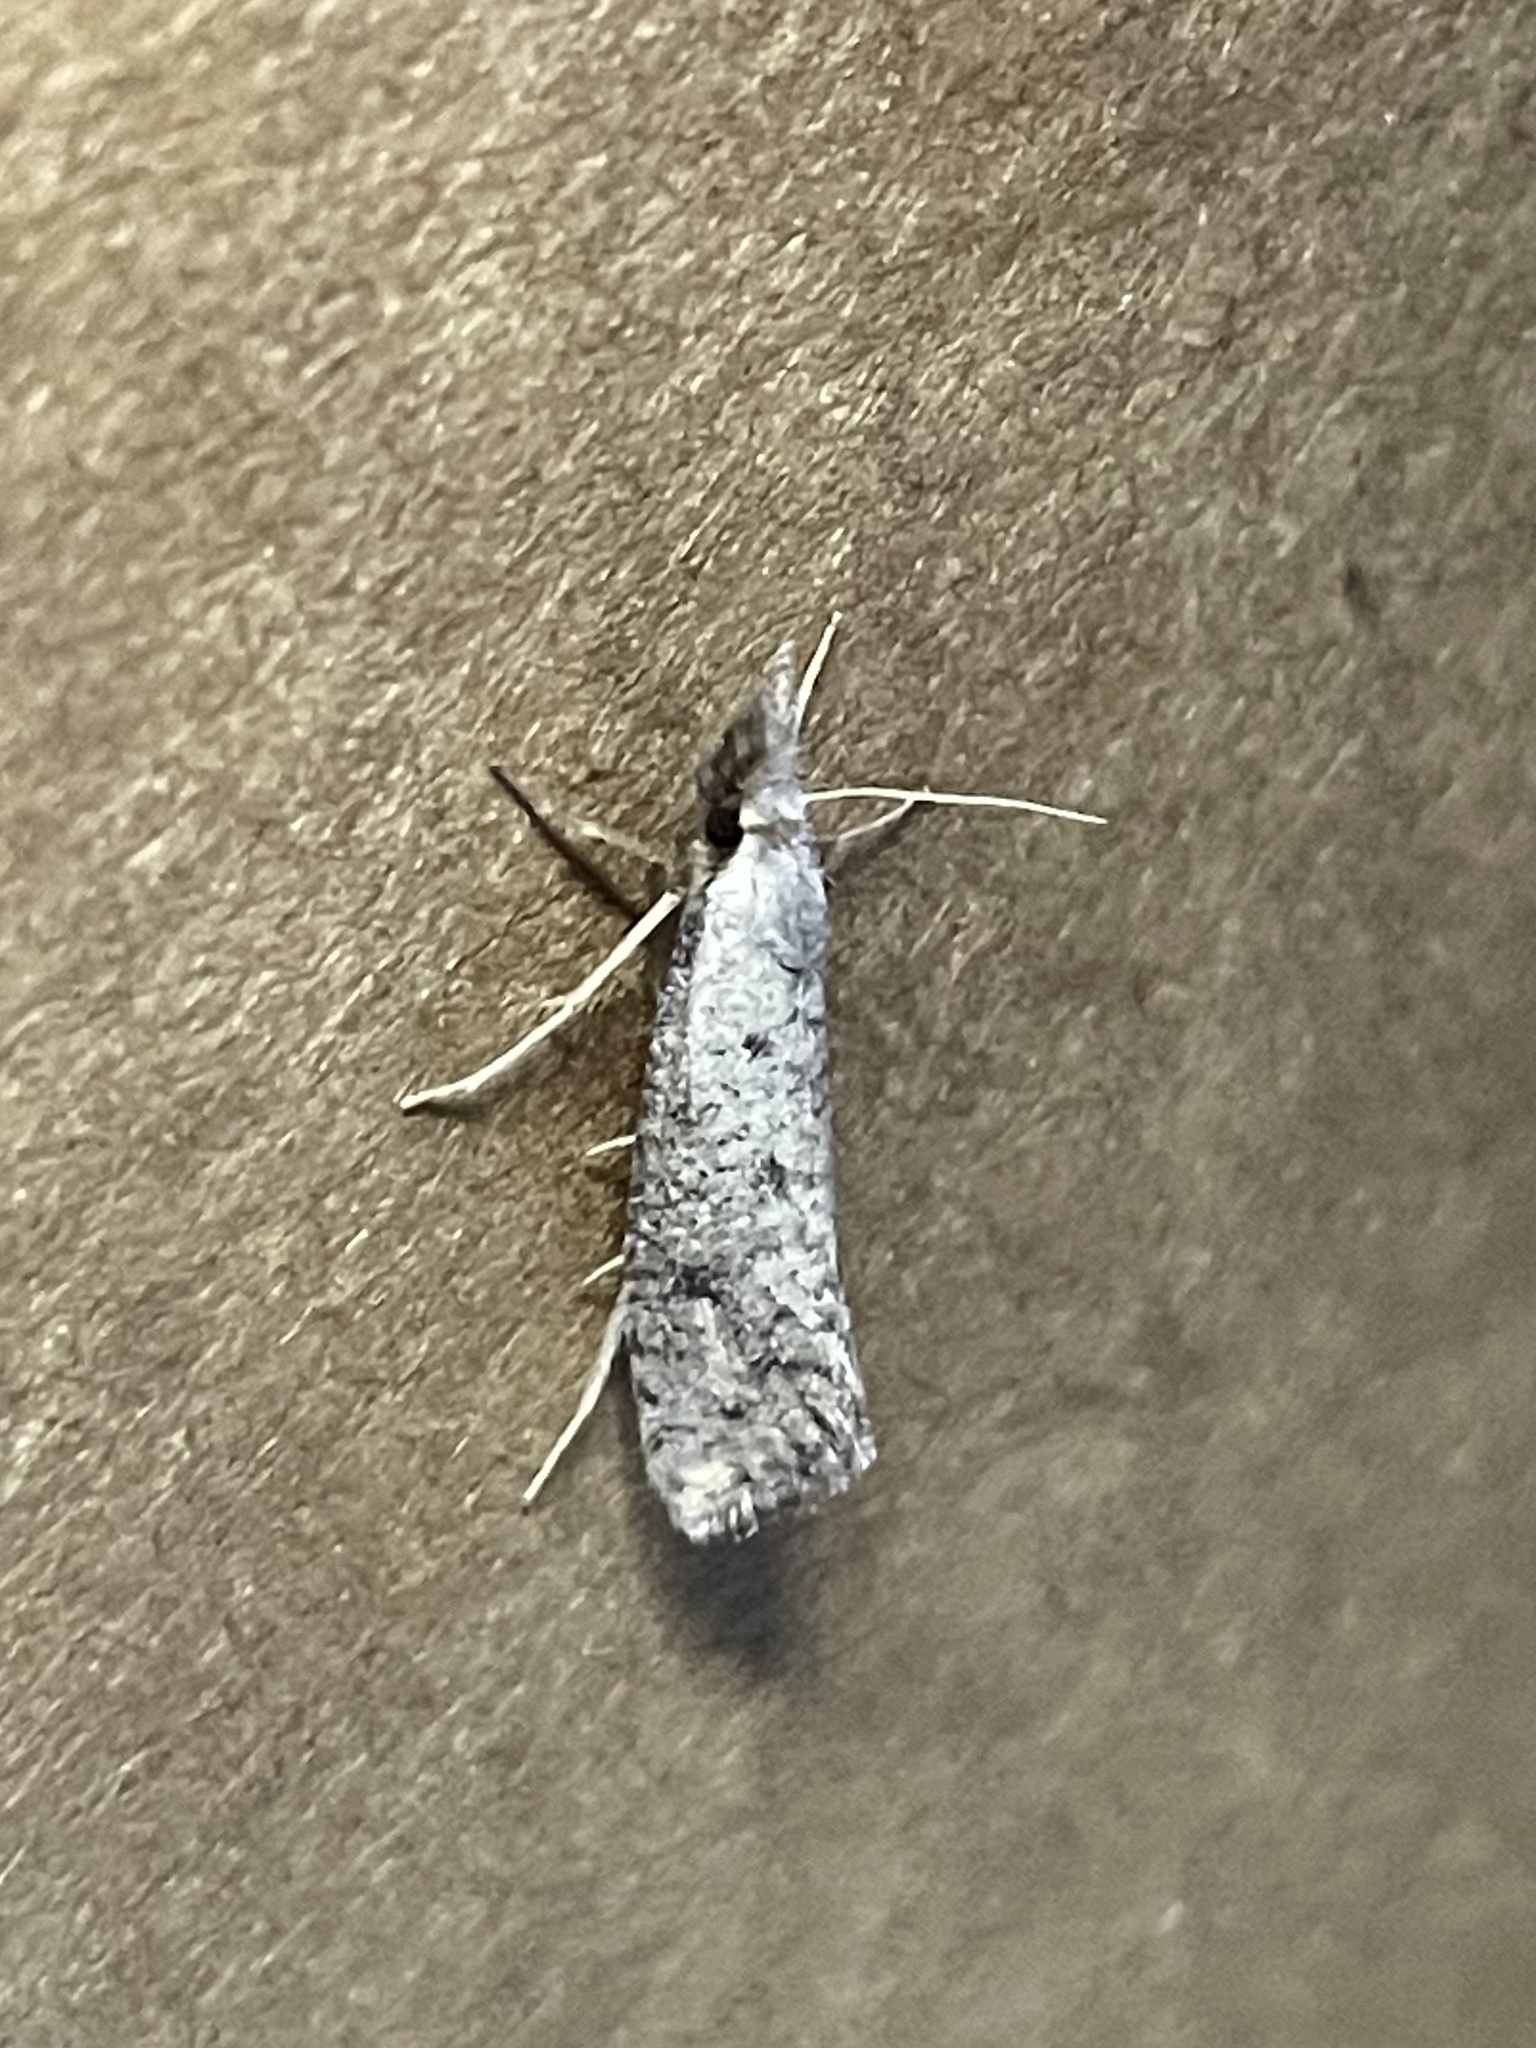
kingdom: Animalia
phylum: Arthropoda
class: Insecta
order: Lepidoptera
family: Tineidae
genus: Acrolophus
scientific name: Acrolophus mortipennella
